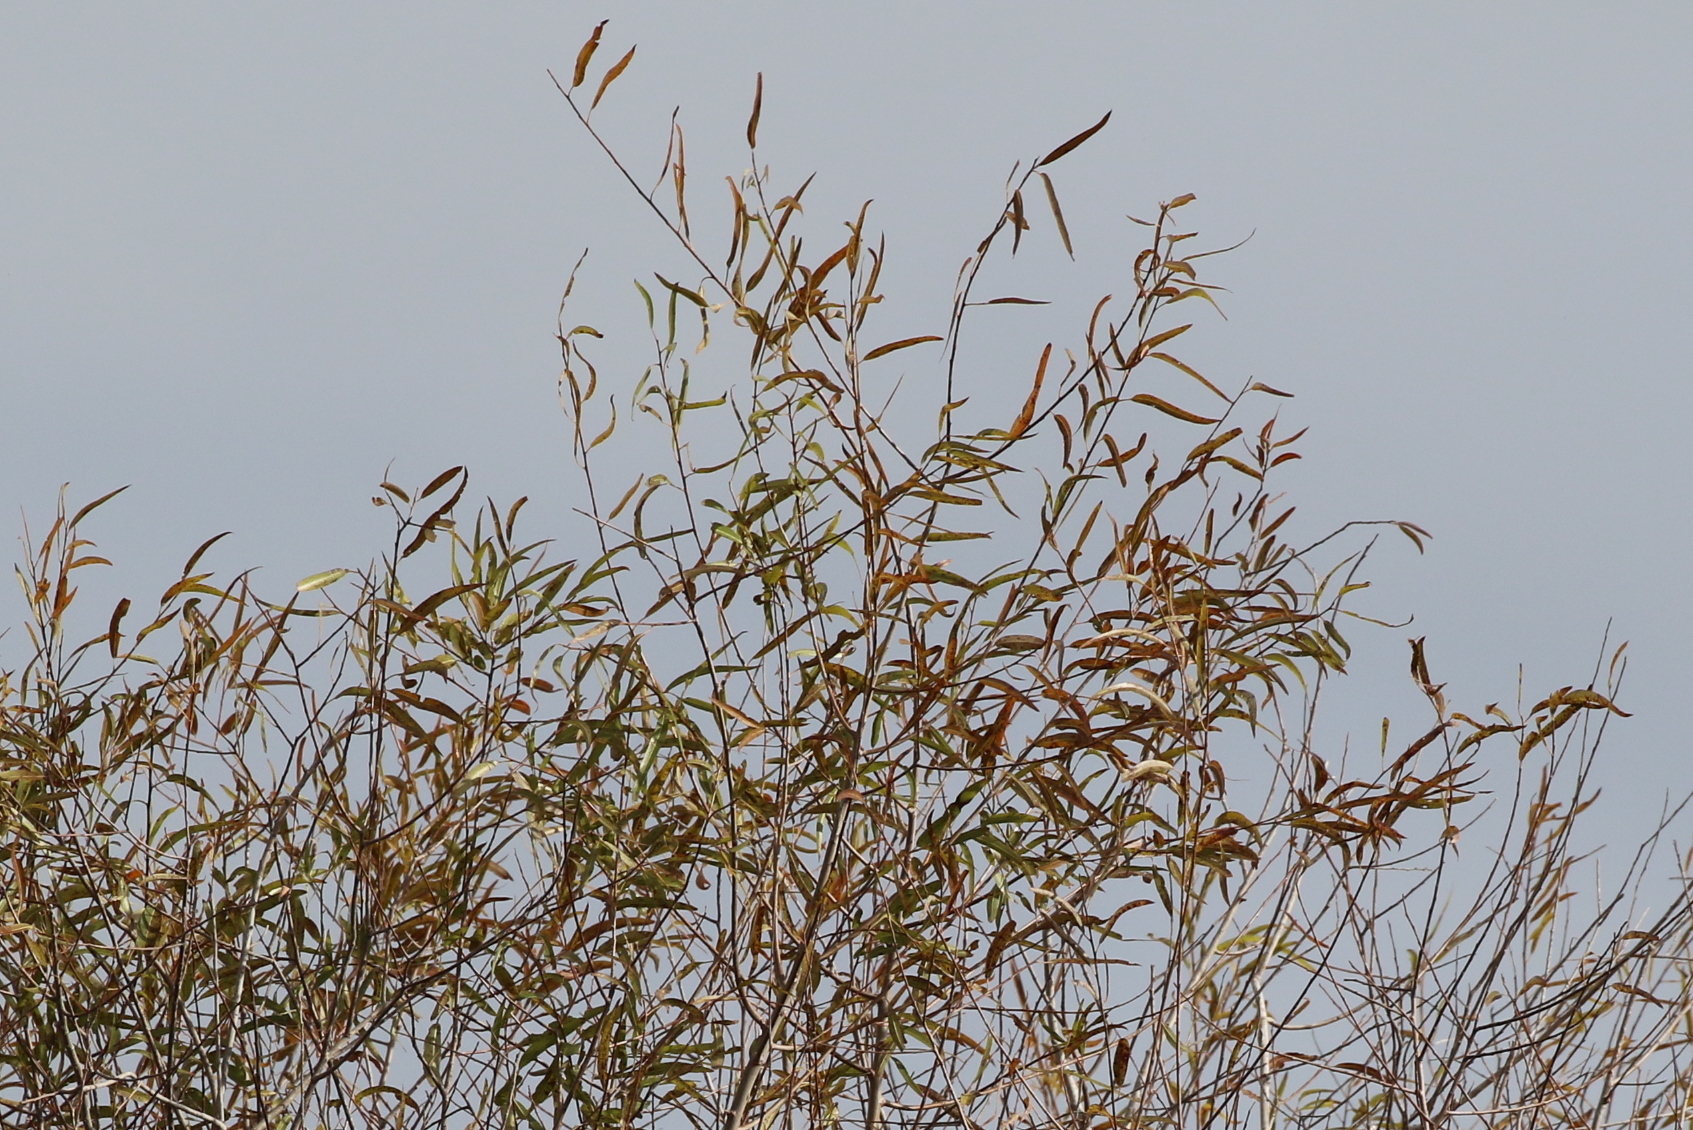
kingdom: Plantae
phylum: Tracheophyta
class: Magnoliopsida
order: Malpighiales
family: Salicaceae
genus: Salix
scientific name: Salix caroliniana
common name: Carolina willow
